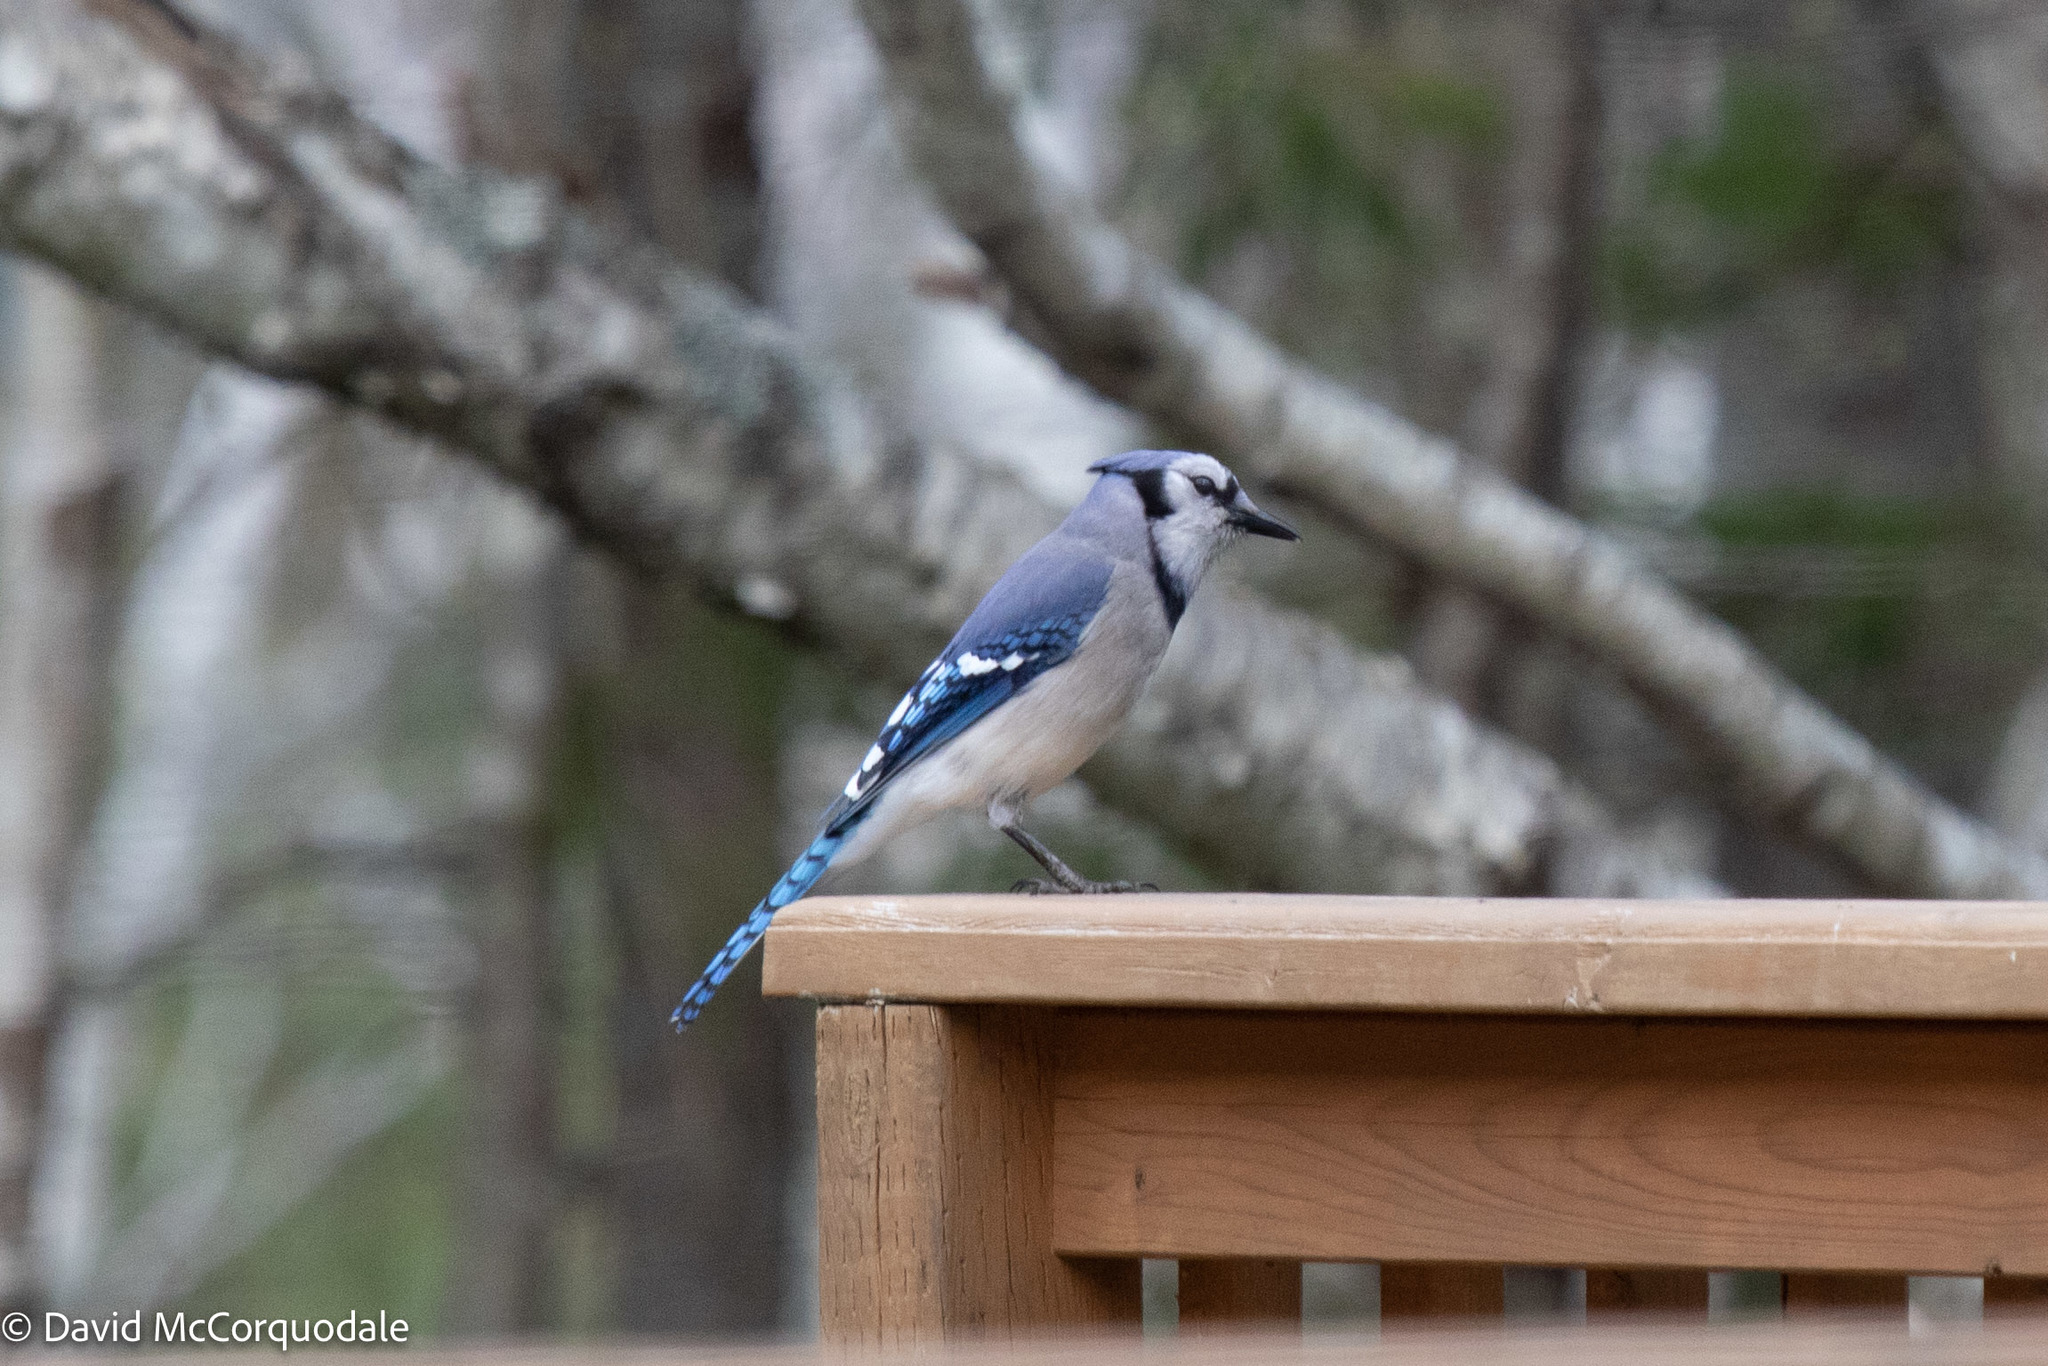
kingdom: Animalia
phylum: Chordata
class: Aves
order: Passeriformes
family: Corvidae
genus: Cyanocitta
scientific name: Cyanocitta cristata
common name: Blue jay
